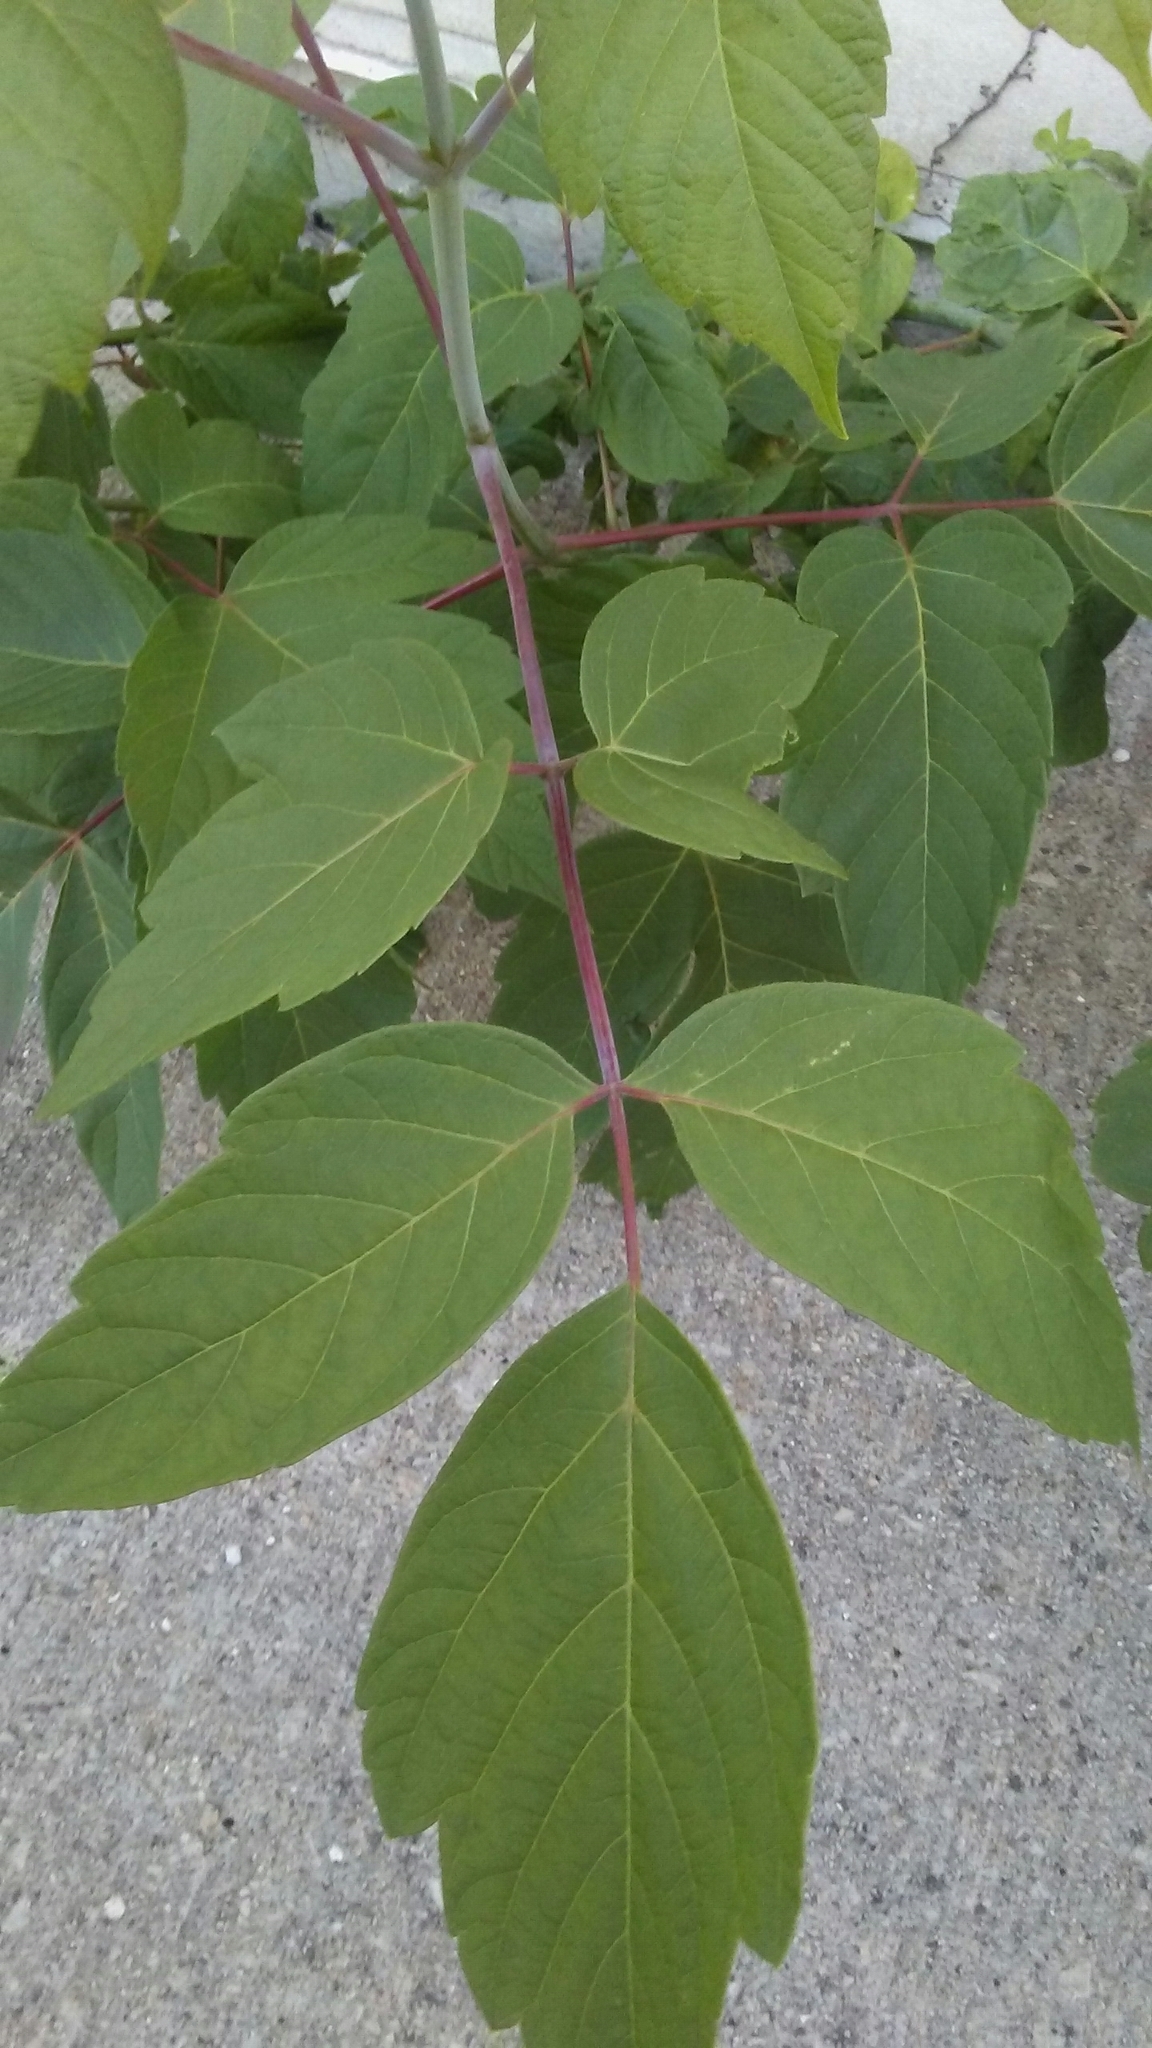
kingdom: Plantae
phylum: Tracheophyta
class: Magnoliopsida
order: Sapindales
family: Sapindaceae
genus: Acer
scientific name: Acer negundo
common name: Ashleaf maple
